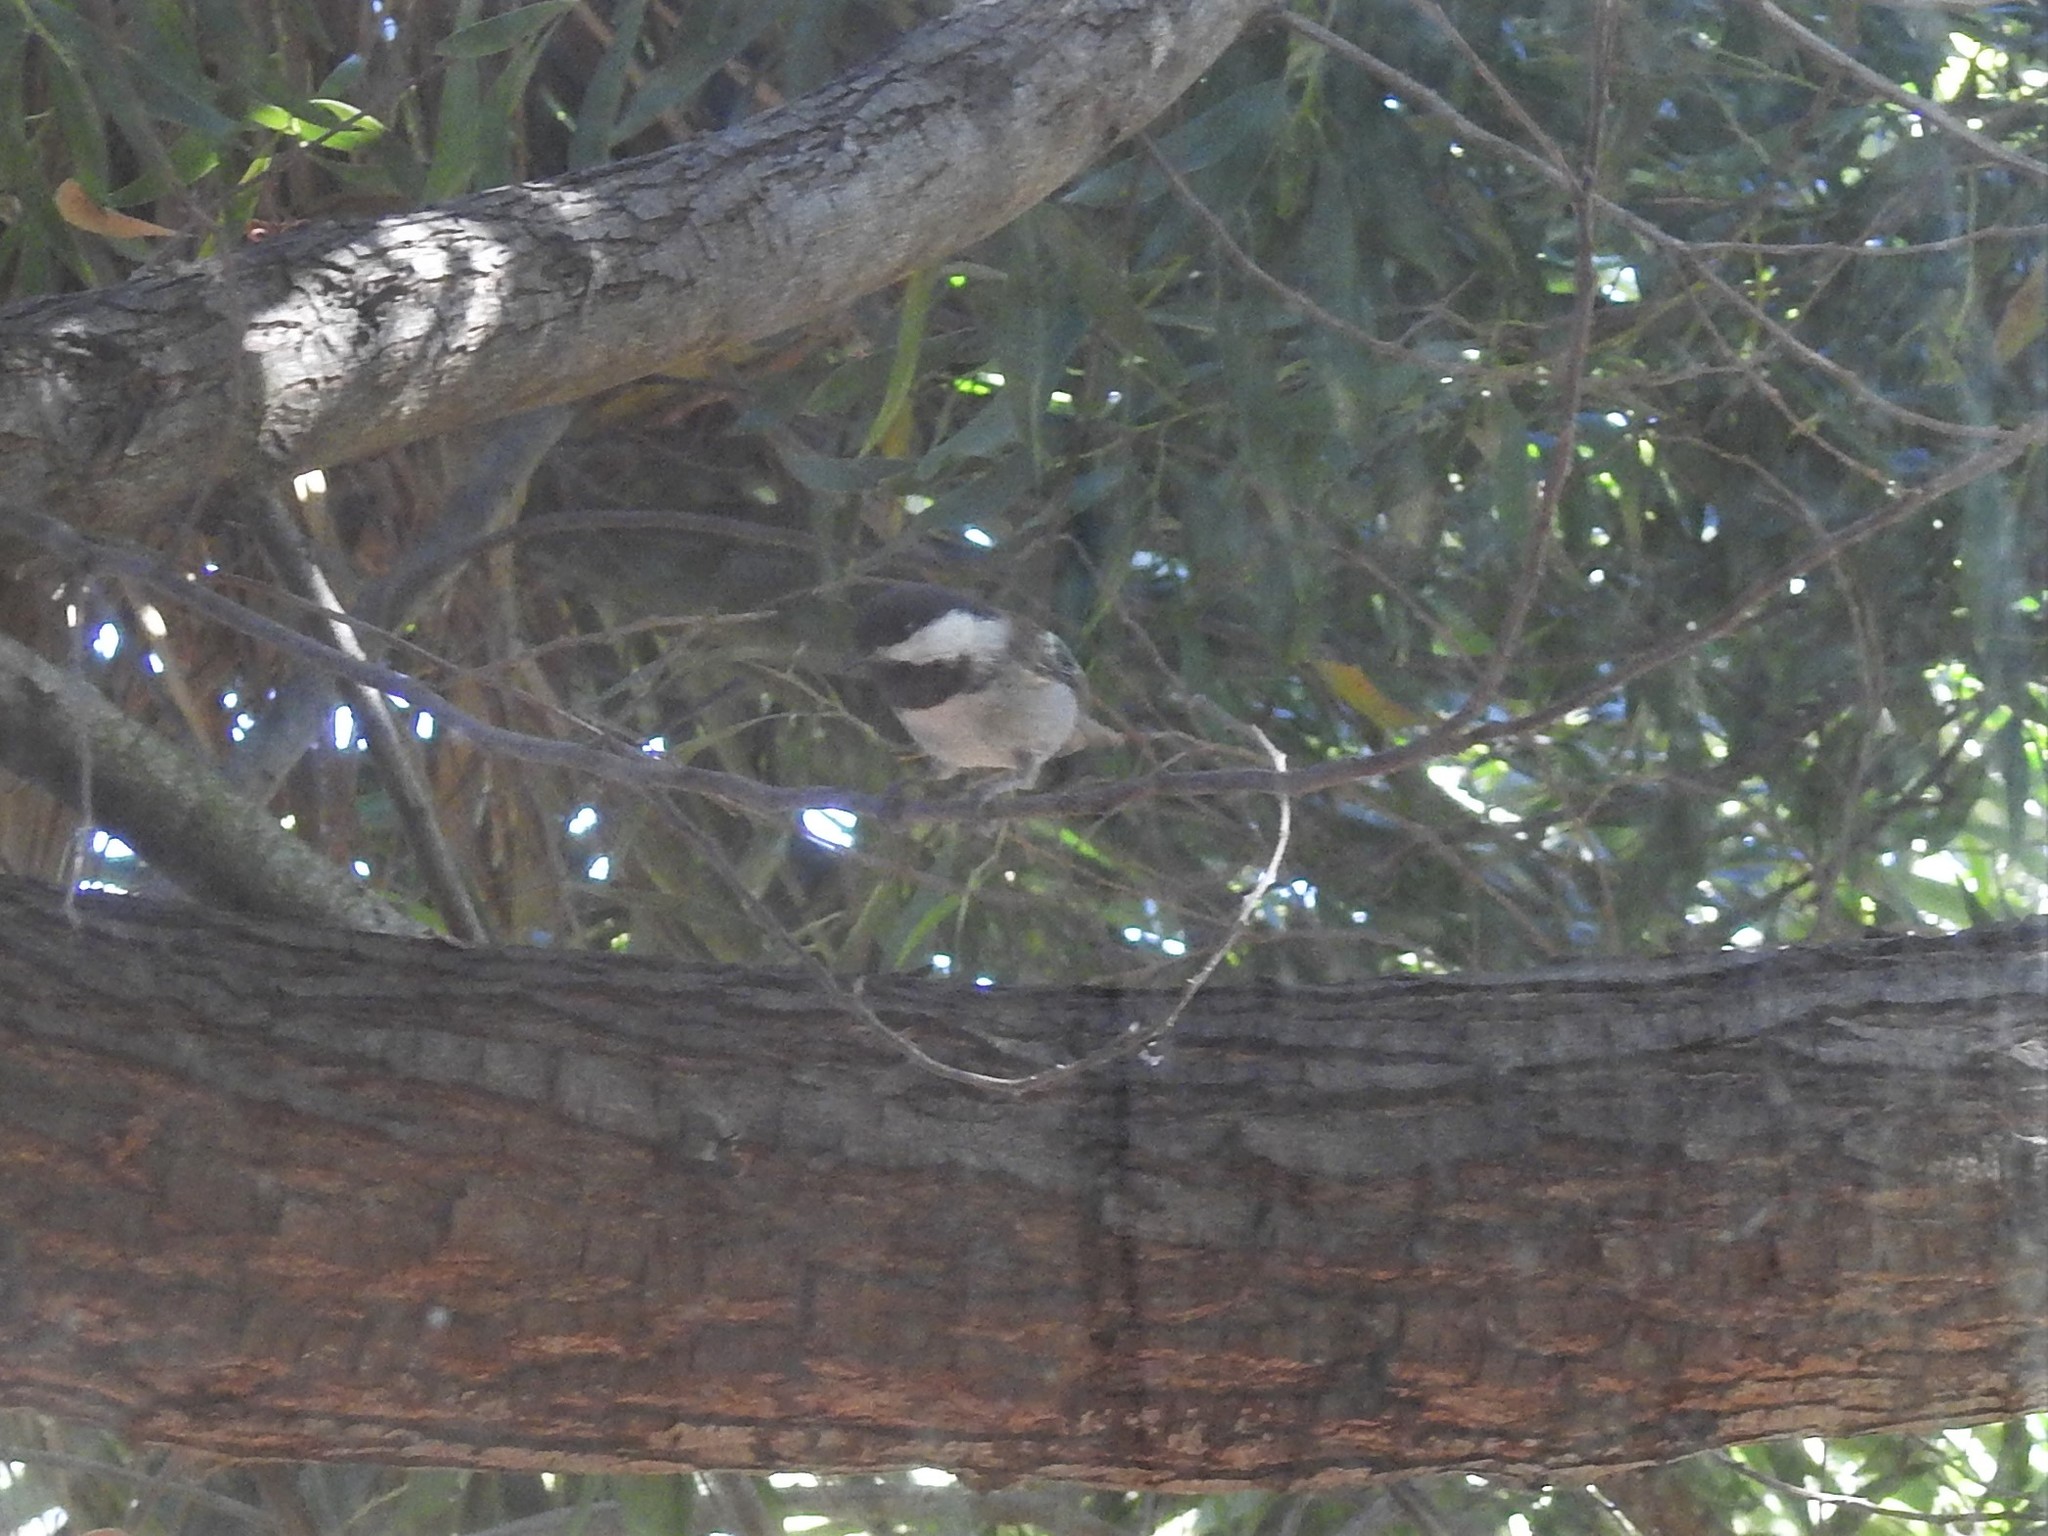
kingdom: Animalia
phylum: Chordata
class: Aves
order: Passeriformes
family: Paridae
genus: Poecile
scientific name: Poecile rufescens
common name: Chestnut-backed chickadee
